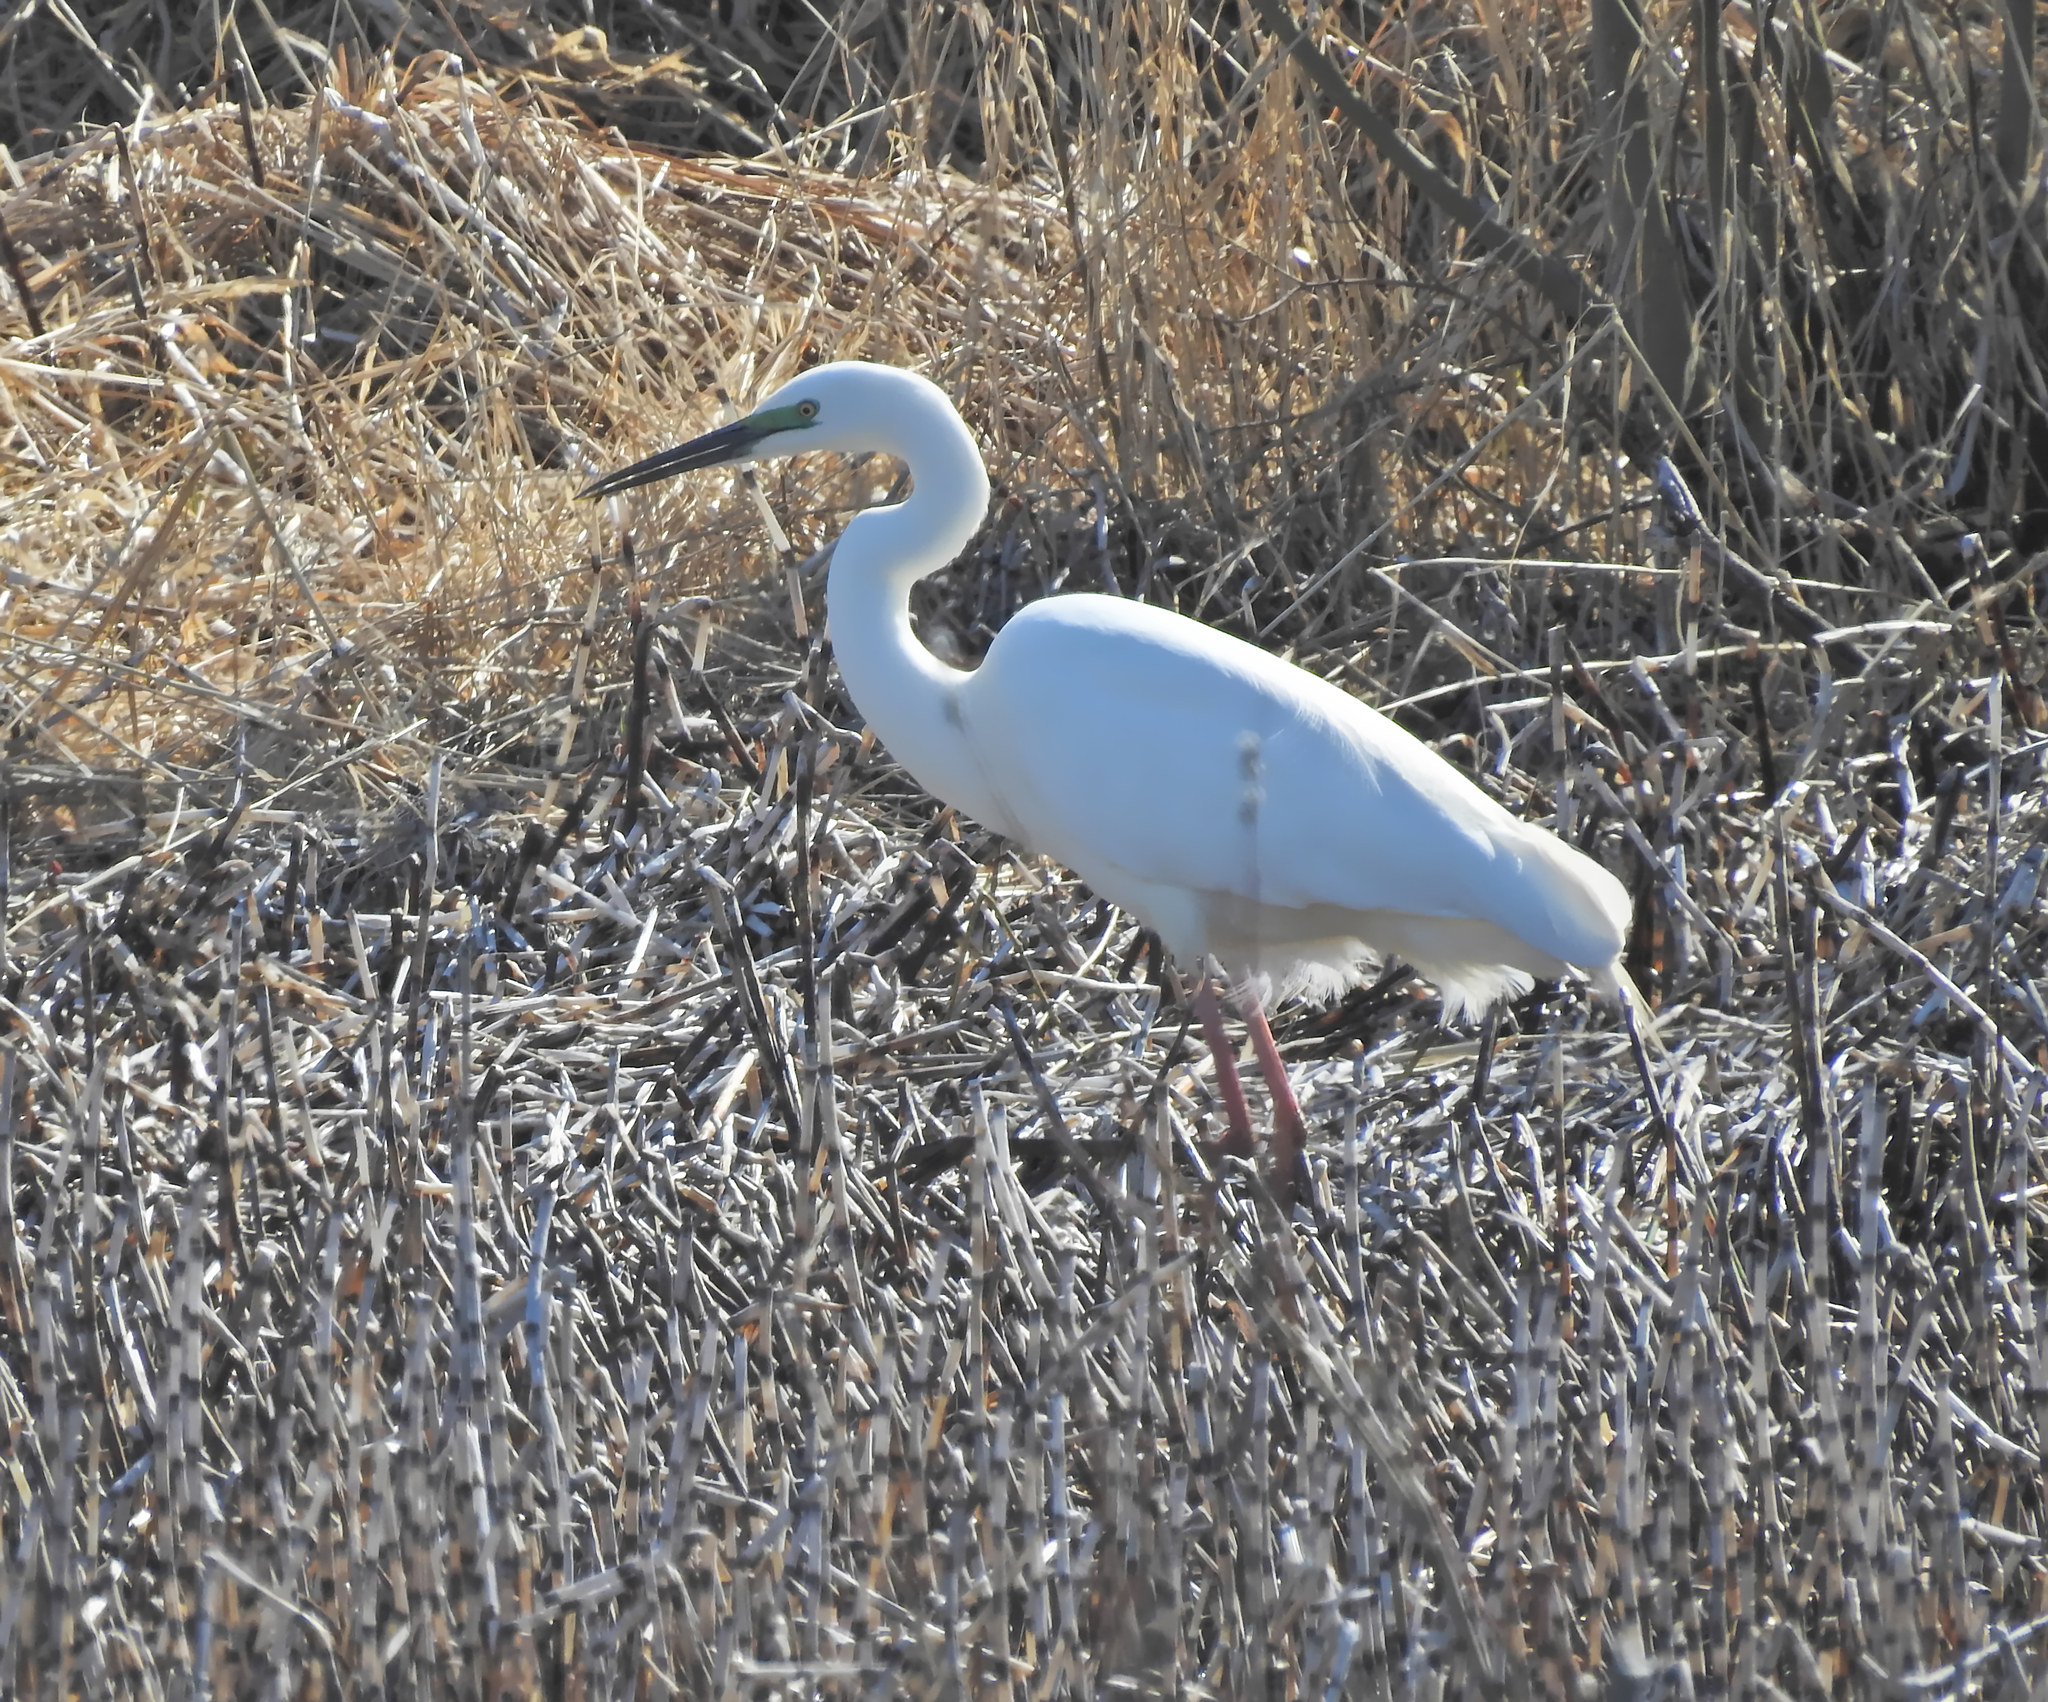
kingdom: Animalia
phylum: Chordata
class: Aves
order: Pelecaniformes
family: Ardeidae
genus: Ardea
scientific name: Ardea alba
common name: Great egret
